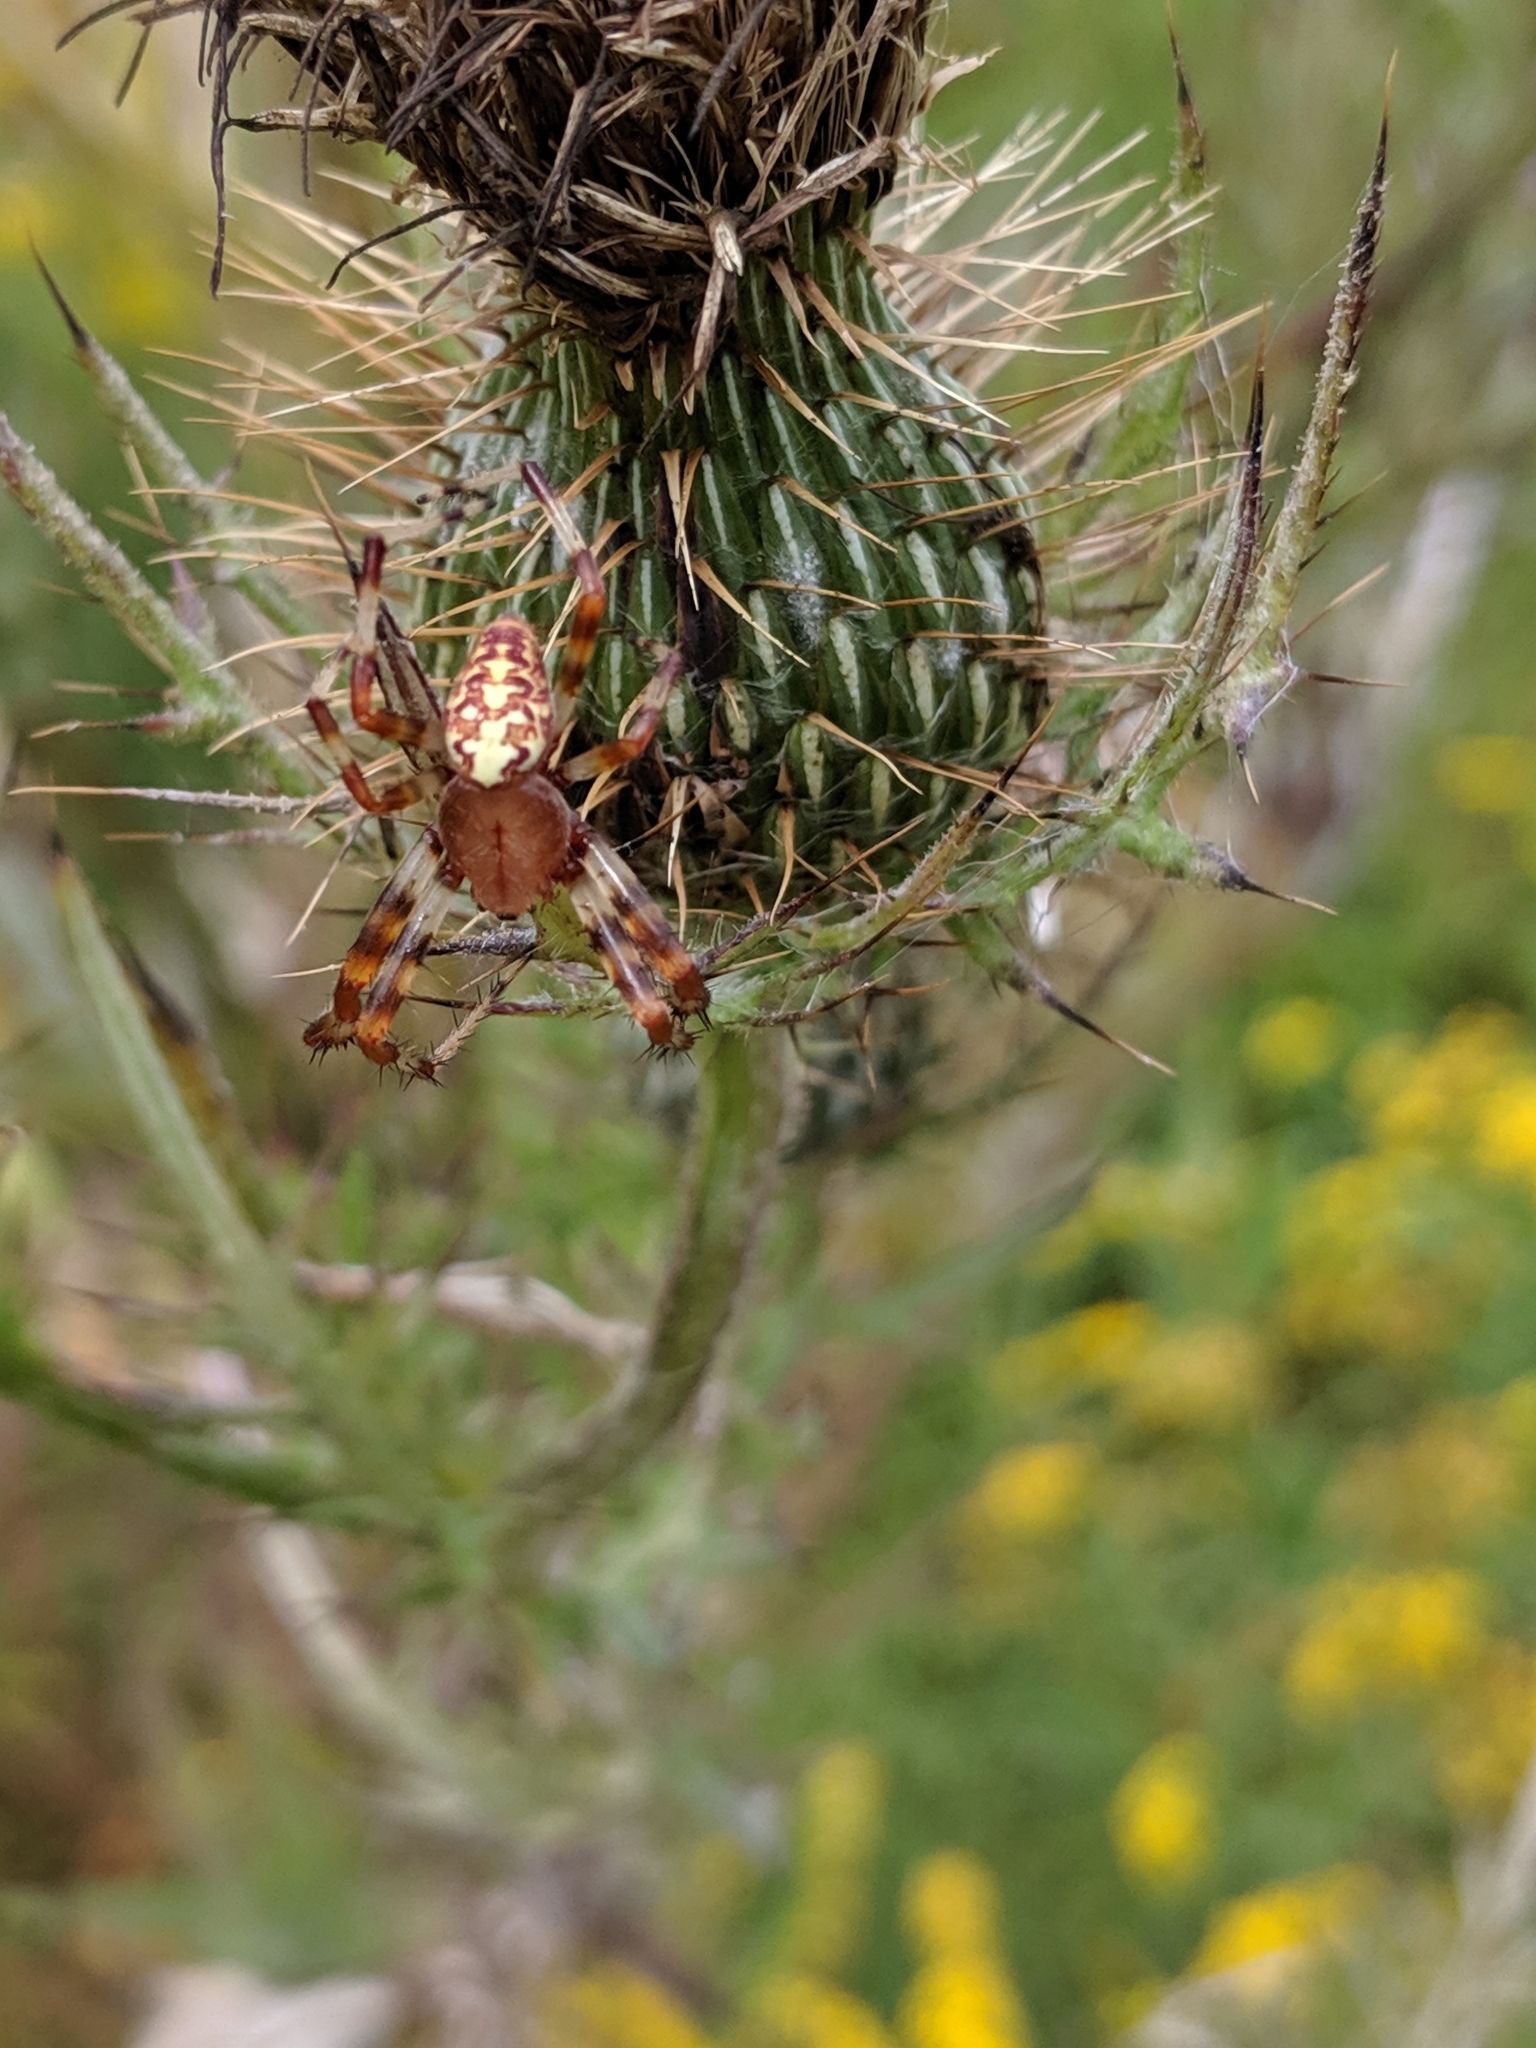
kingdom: Animalia
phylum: Arthropoda
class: Arachnida
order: Araneae
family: Araneidae
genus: Araneus
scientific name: Araneus marmoreus
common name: Marbled orbweaver
